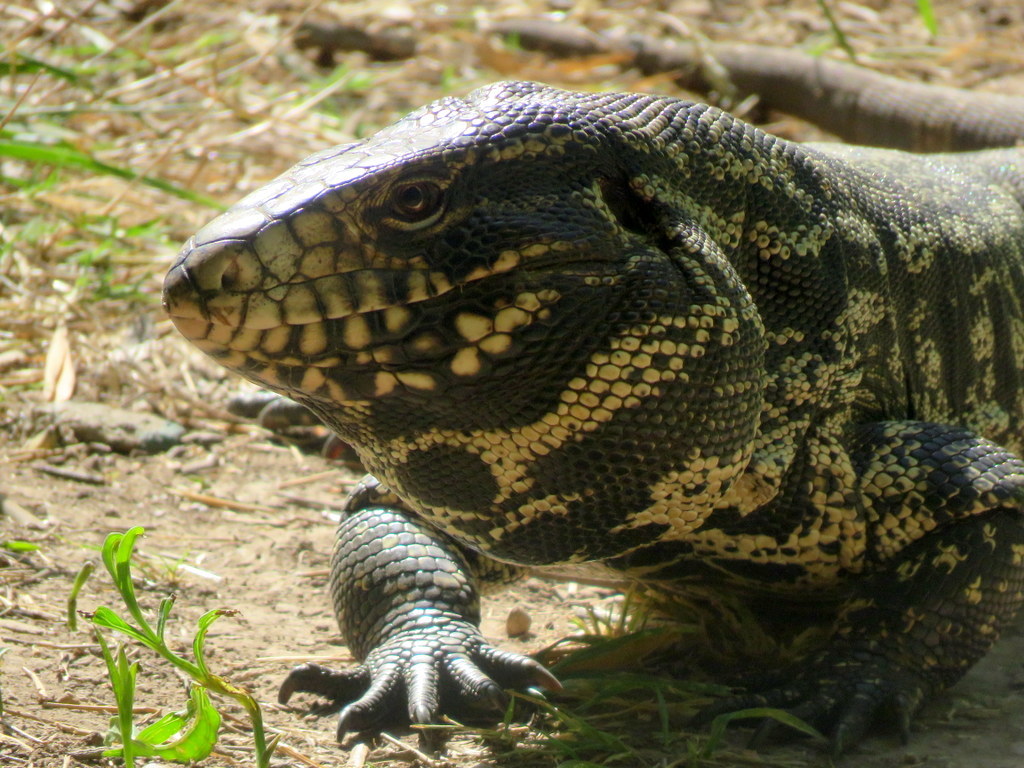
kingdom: Animalia
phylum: Chordata
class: Squamata
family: Teiidae
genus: Salvator
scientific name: Salvator merianae
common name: Argentine black and white tegu
